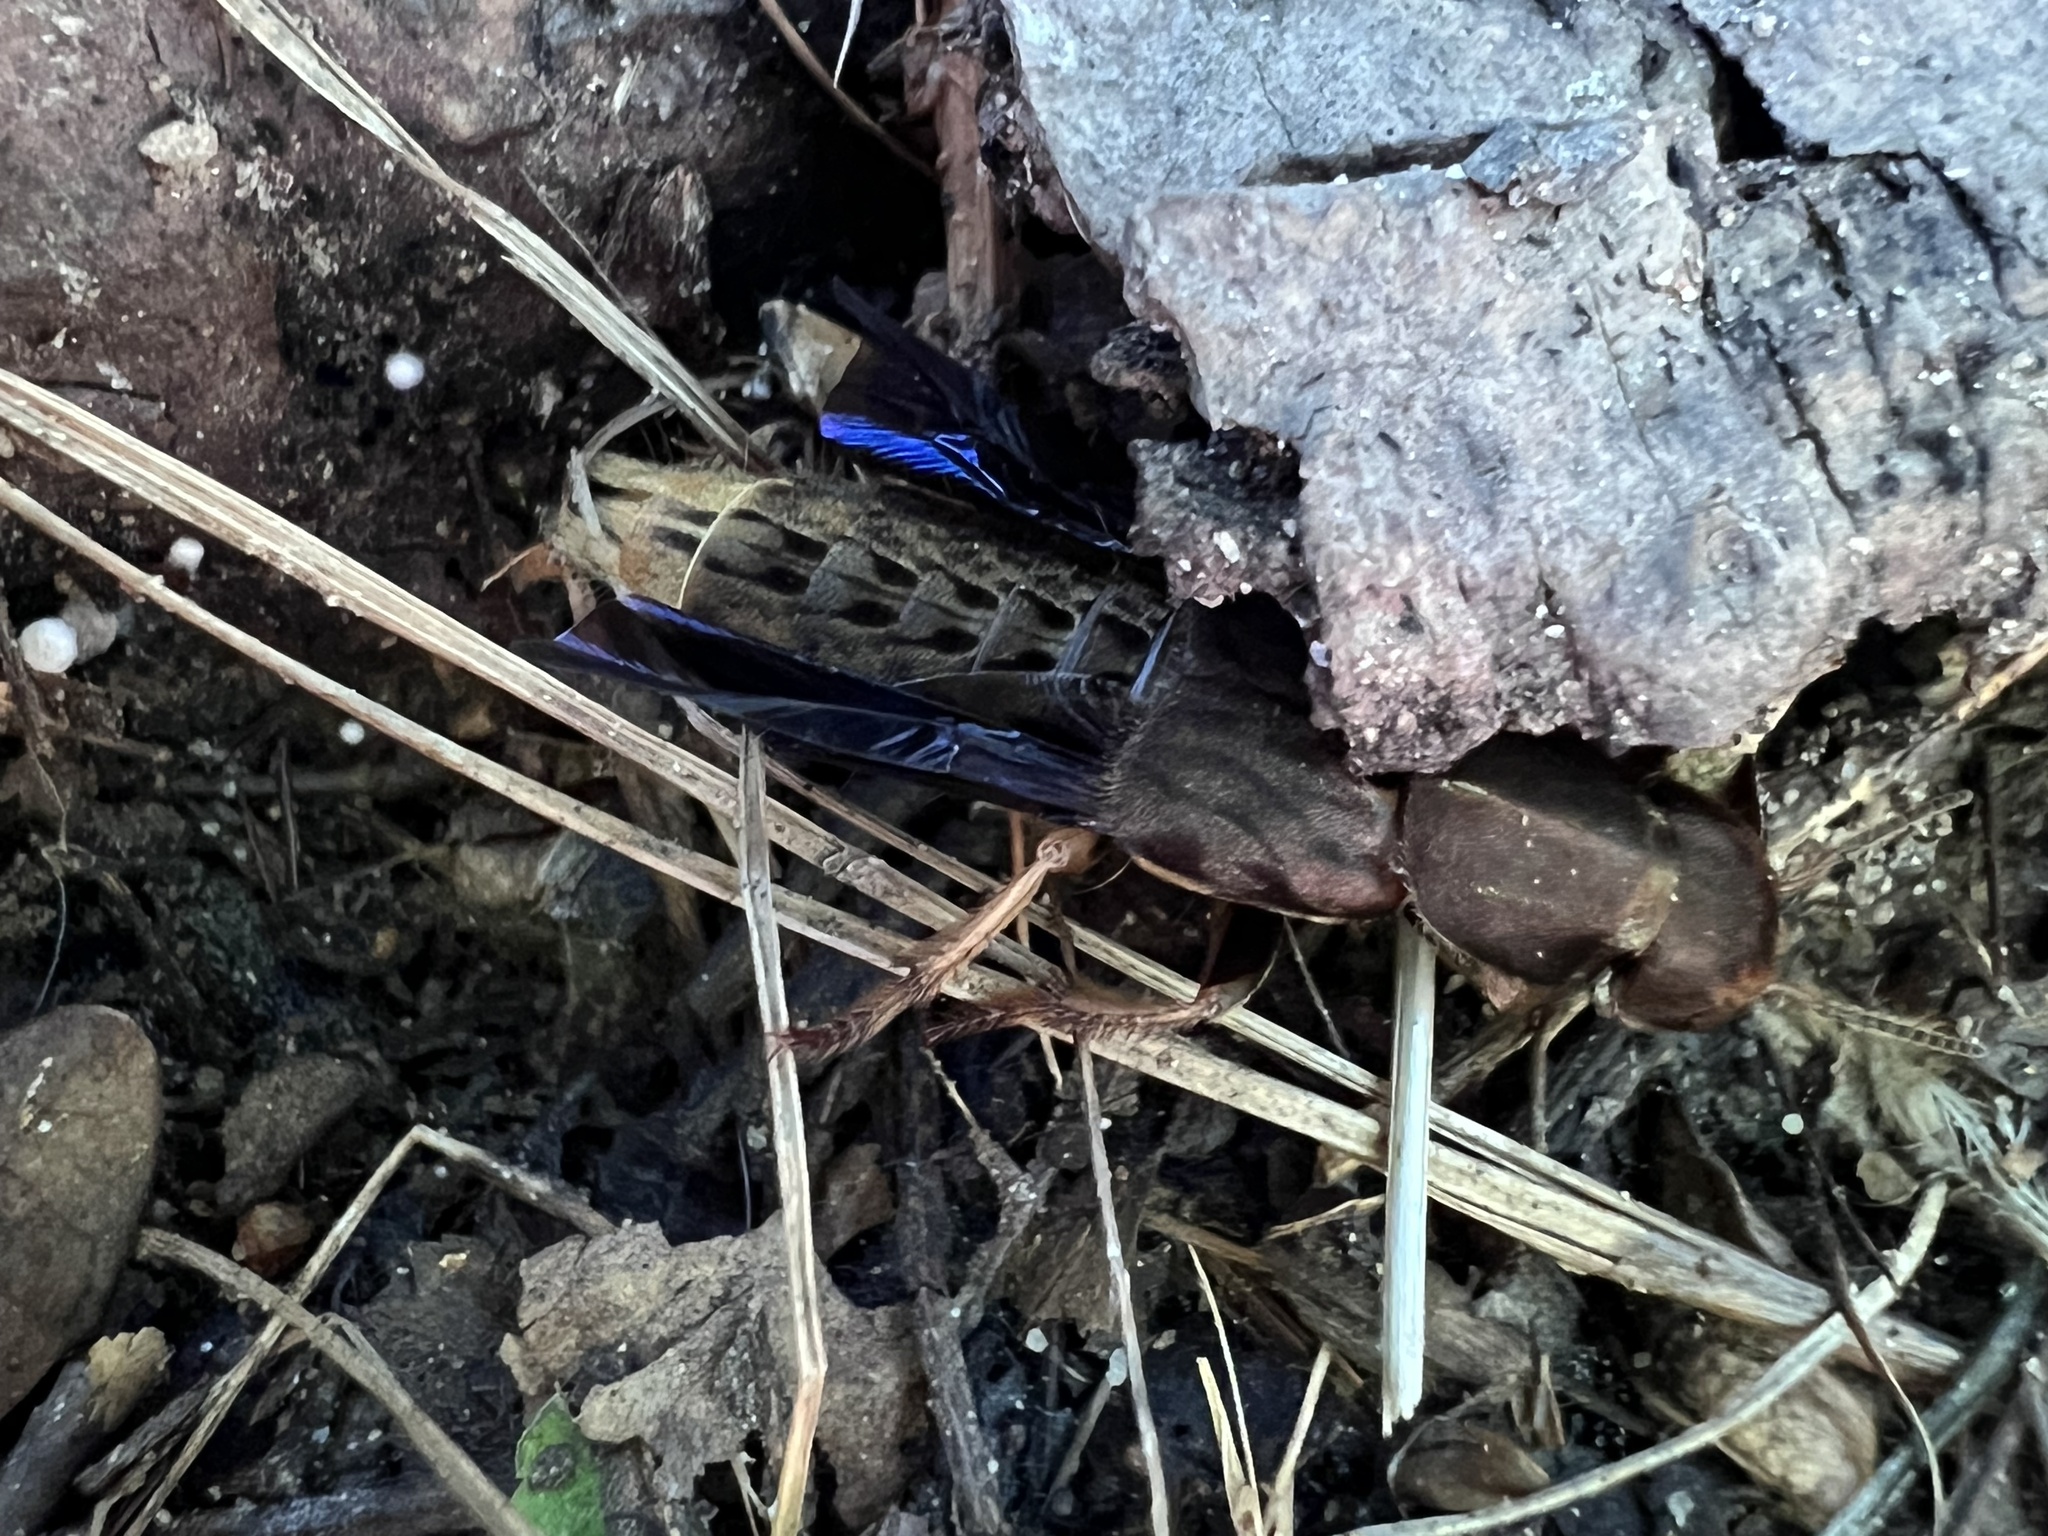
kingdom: Animalia
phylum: Arthropoda
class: Insecta
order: Coleoptera
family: Staphylinidae
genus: Platydracus
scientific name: Platydracus maculosus
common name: Brown rove beetle
